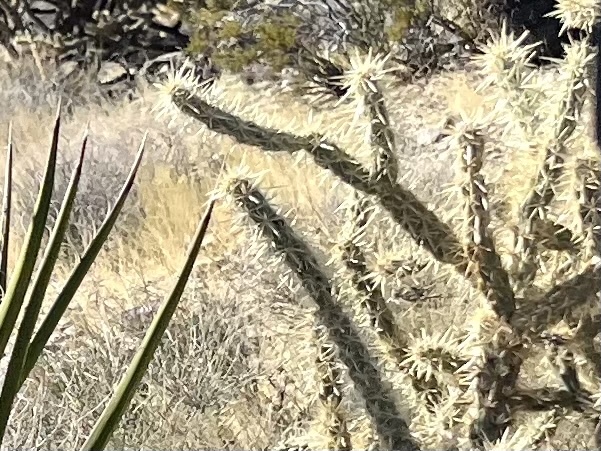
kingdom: Plantae
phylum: Tracheophyta
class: Magnoliopsida
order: Caryophyllales
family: Cactaceae
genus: Cylindropuntia
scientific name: Cylindropuntia acanthocarpa
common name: Buckhorn cholla
